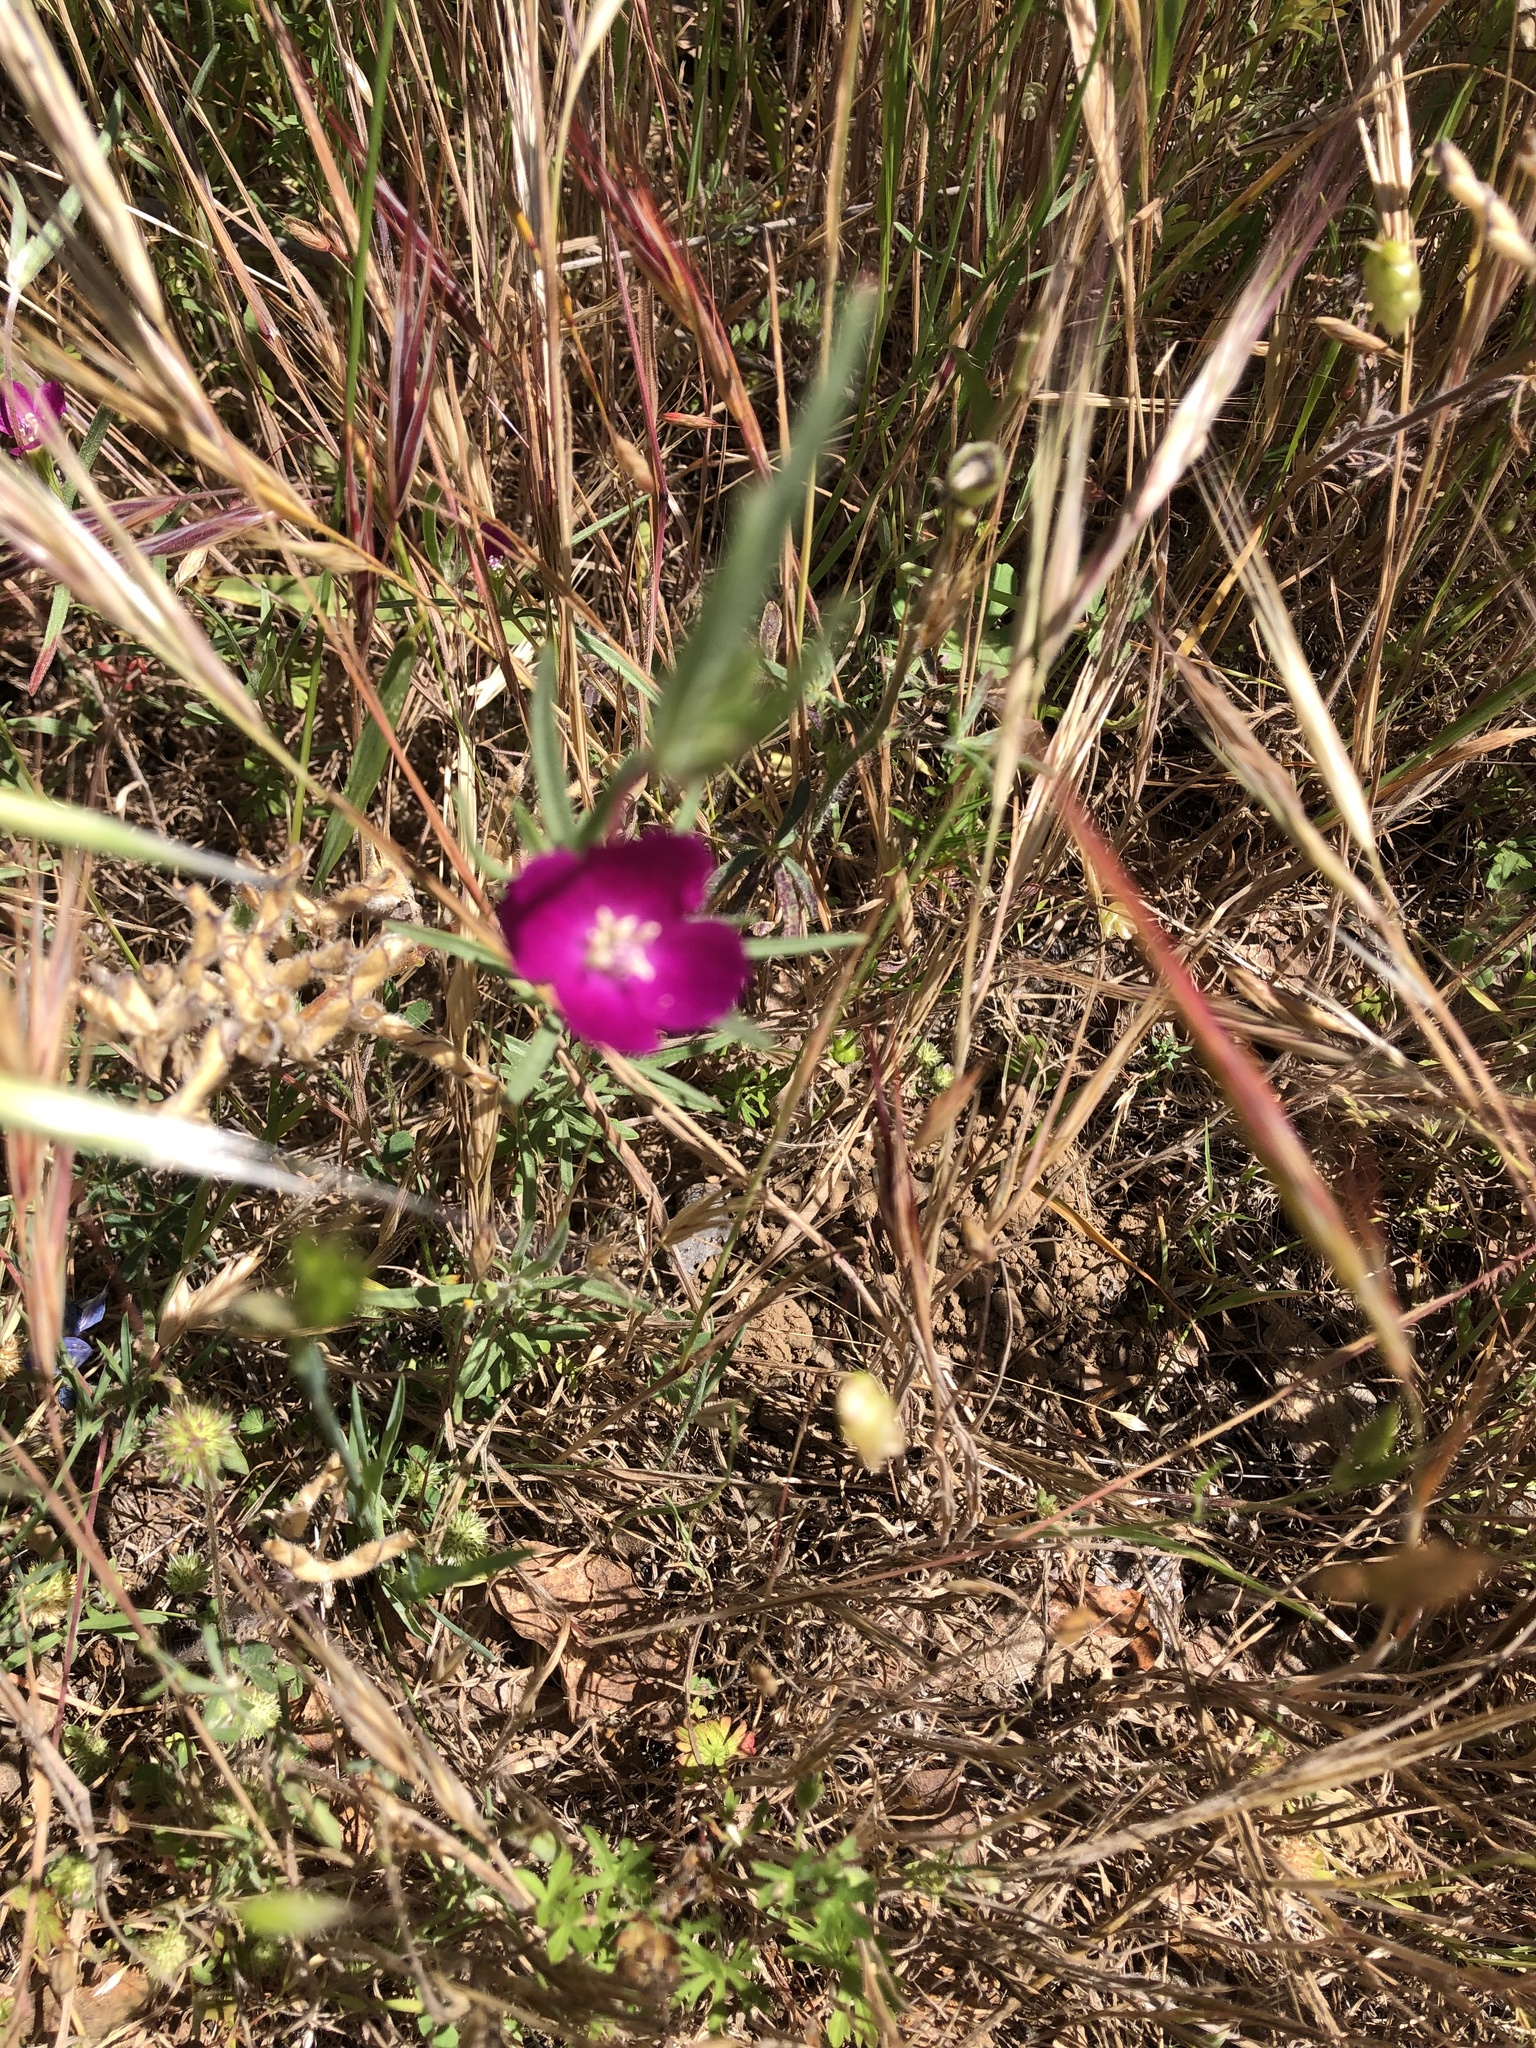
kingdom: Plantae
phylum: Tracheophyta
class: Magnoliopsida
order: Myrtales
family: Onagraceae
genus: Clarkia
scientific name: Clarkia purpurea
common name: Purple clarkia
